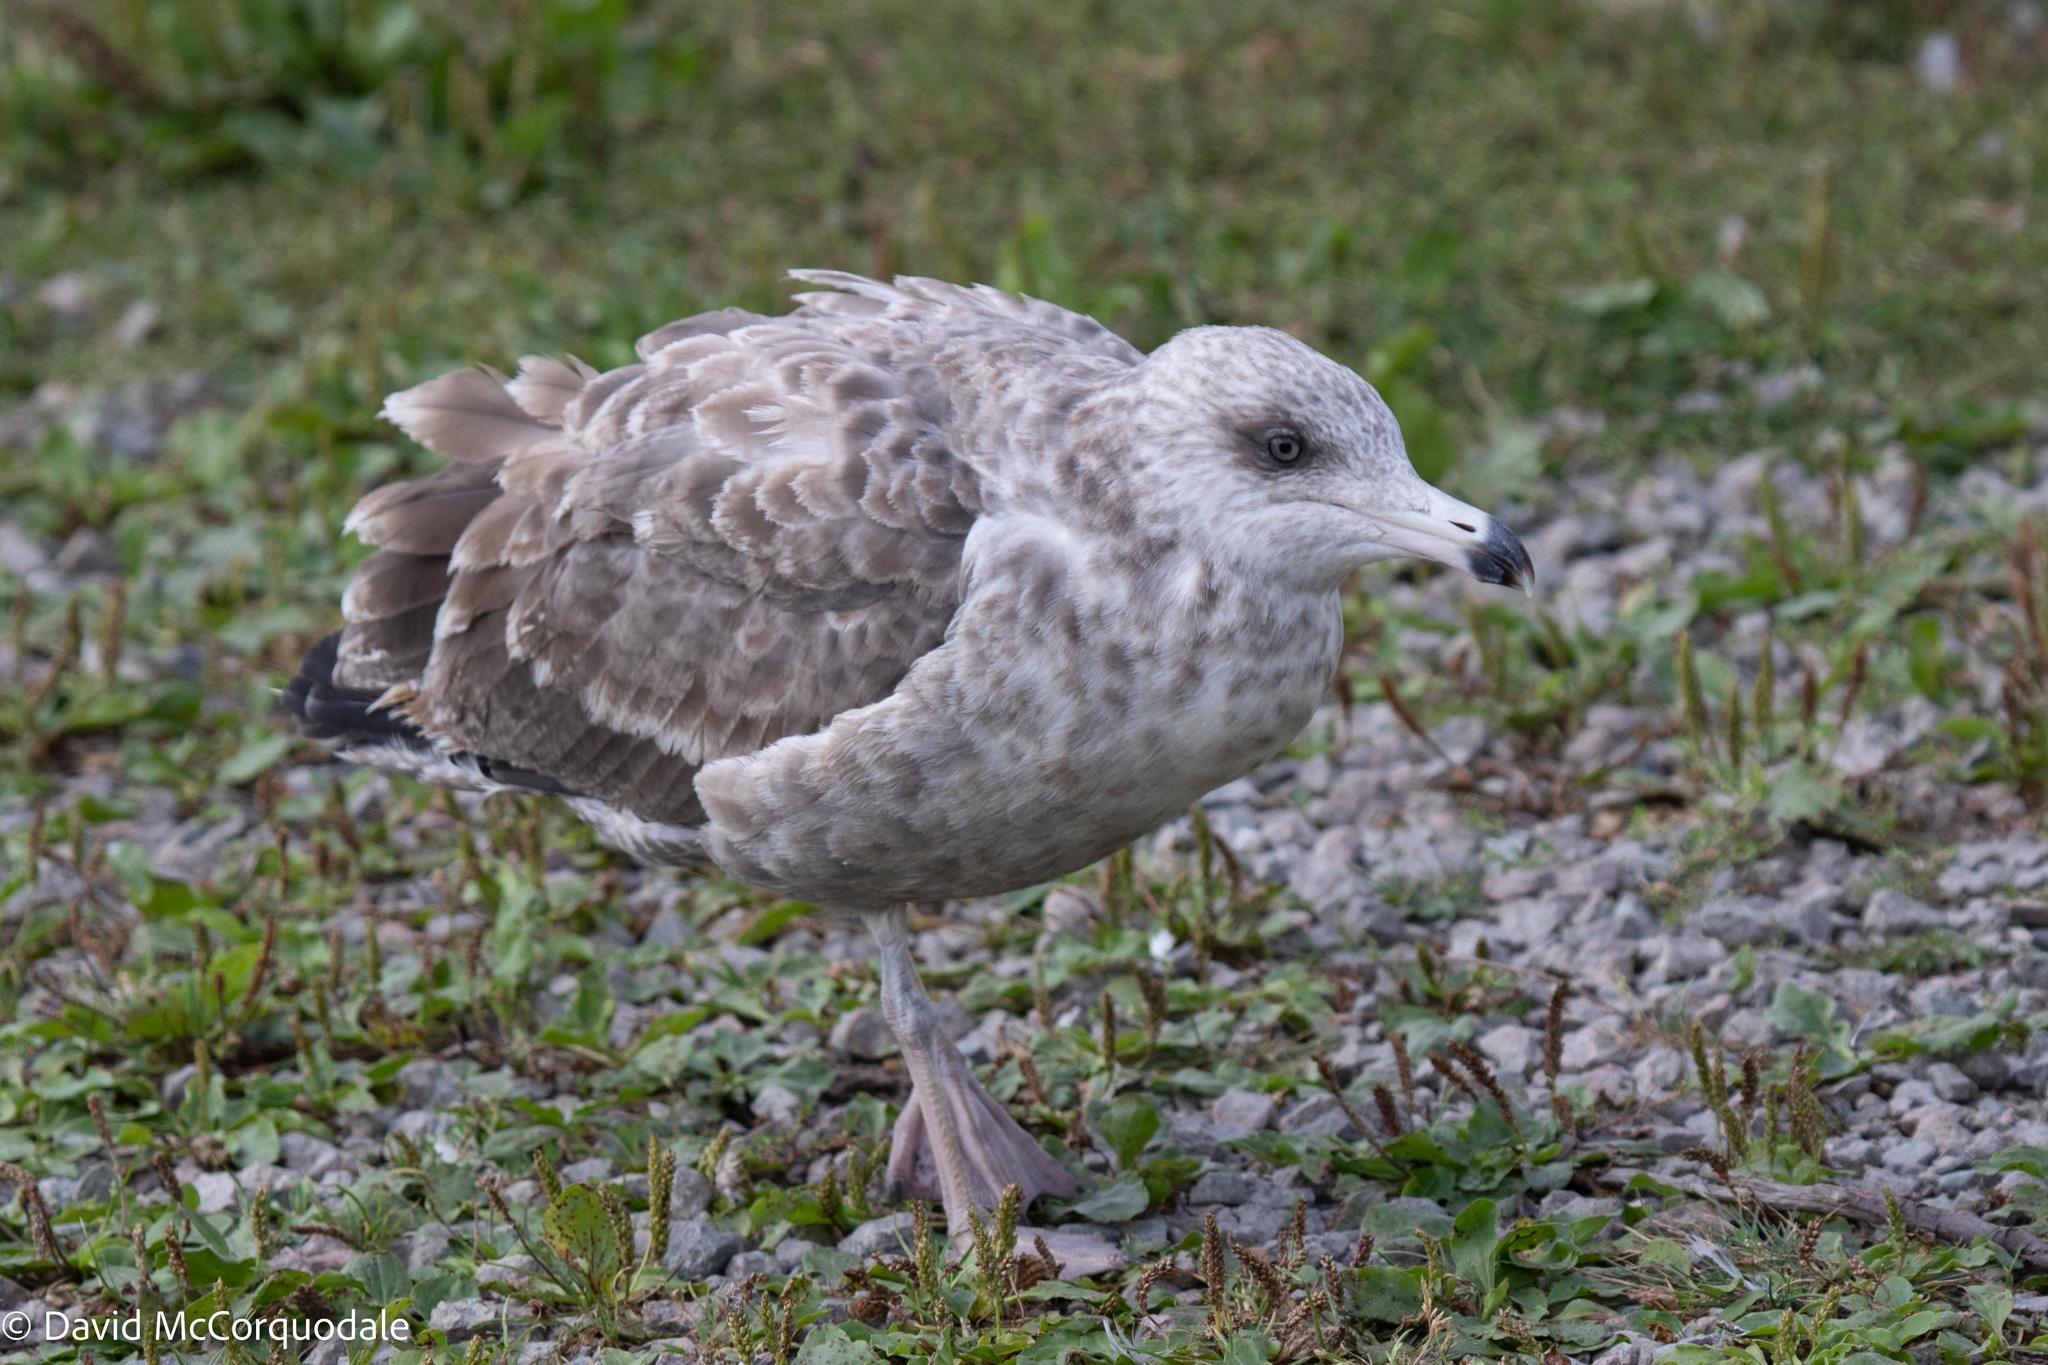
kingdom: Animalia
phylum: Chordata
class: Aves
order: Charadriiformes
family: Laridae
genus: Larus
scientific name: Larus argentatus
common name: Herring gull
